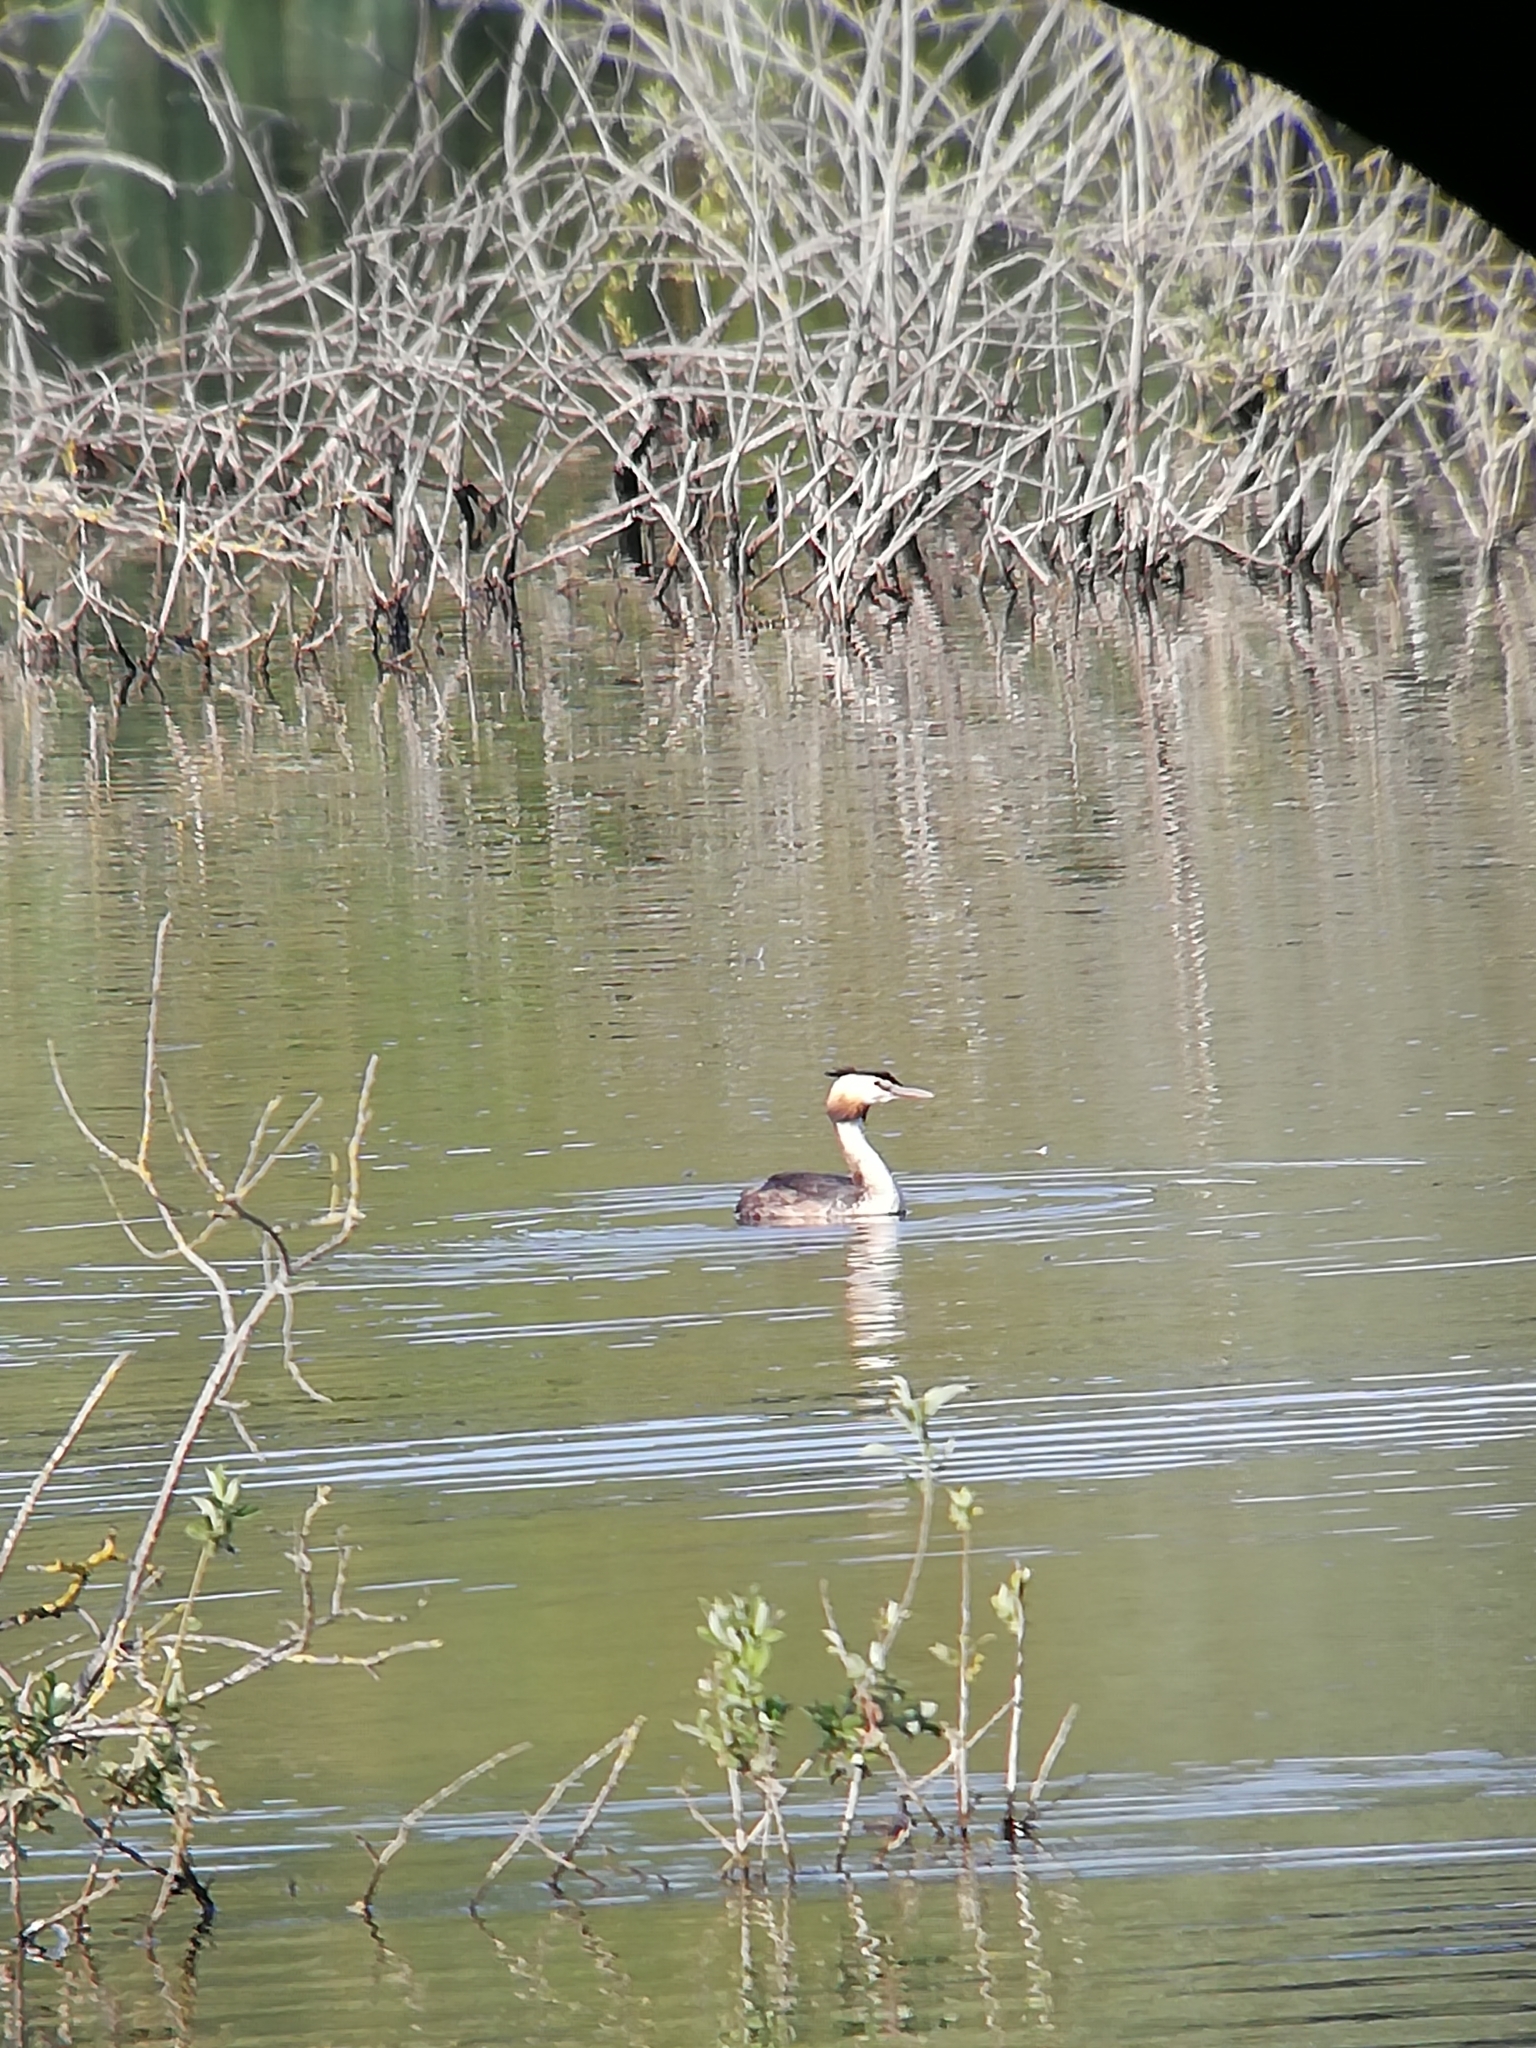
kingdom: Animalia
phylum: Chordata
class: Aves
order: Podicipediformes
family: Podicipedidae
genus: Podiceps
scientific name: Podiceps cristatus
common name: Great crested grebe
